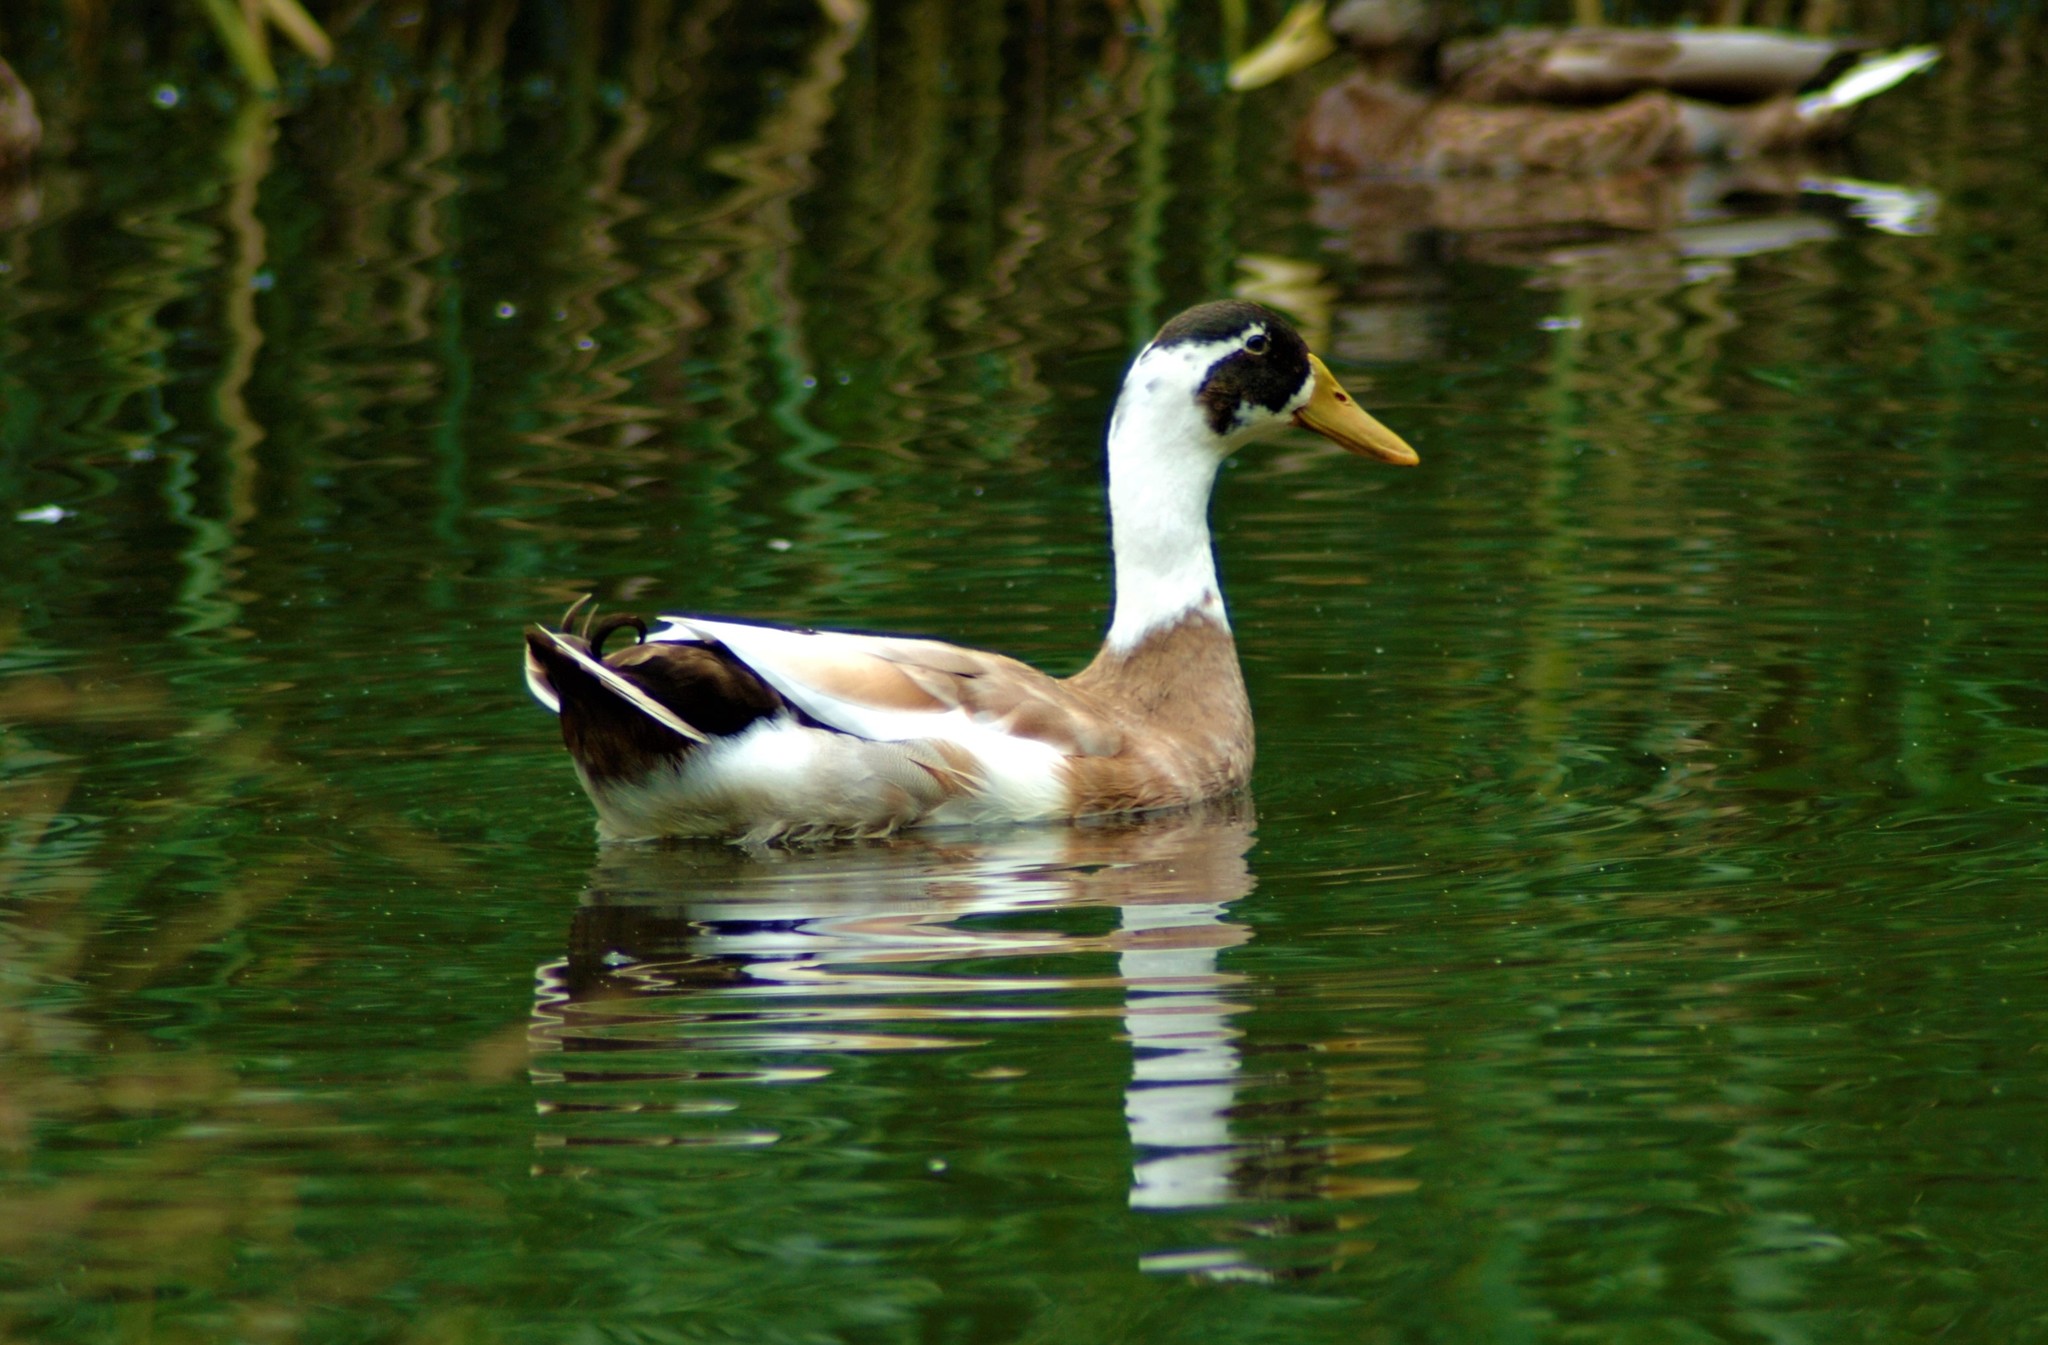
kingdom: Animalia
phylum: Chordata
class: Aves
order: Anseriformes
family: Anatidae
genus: Anas
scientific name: Anas platyrhynchos
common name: Mallard
